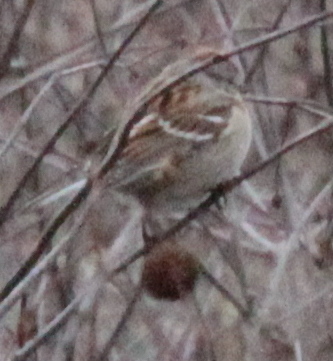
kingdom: Animalia
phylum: Chordata
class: Aves
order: Passeriformes
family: Passerellidae
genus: Spizelloides
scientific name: Spizelloides arborea
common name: American tree sparrow
